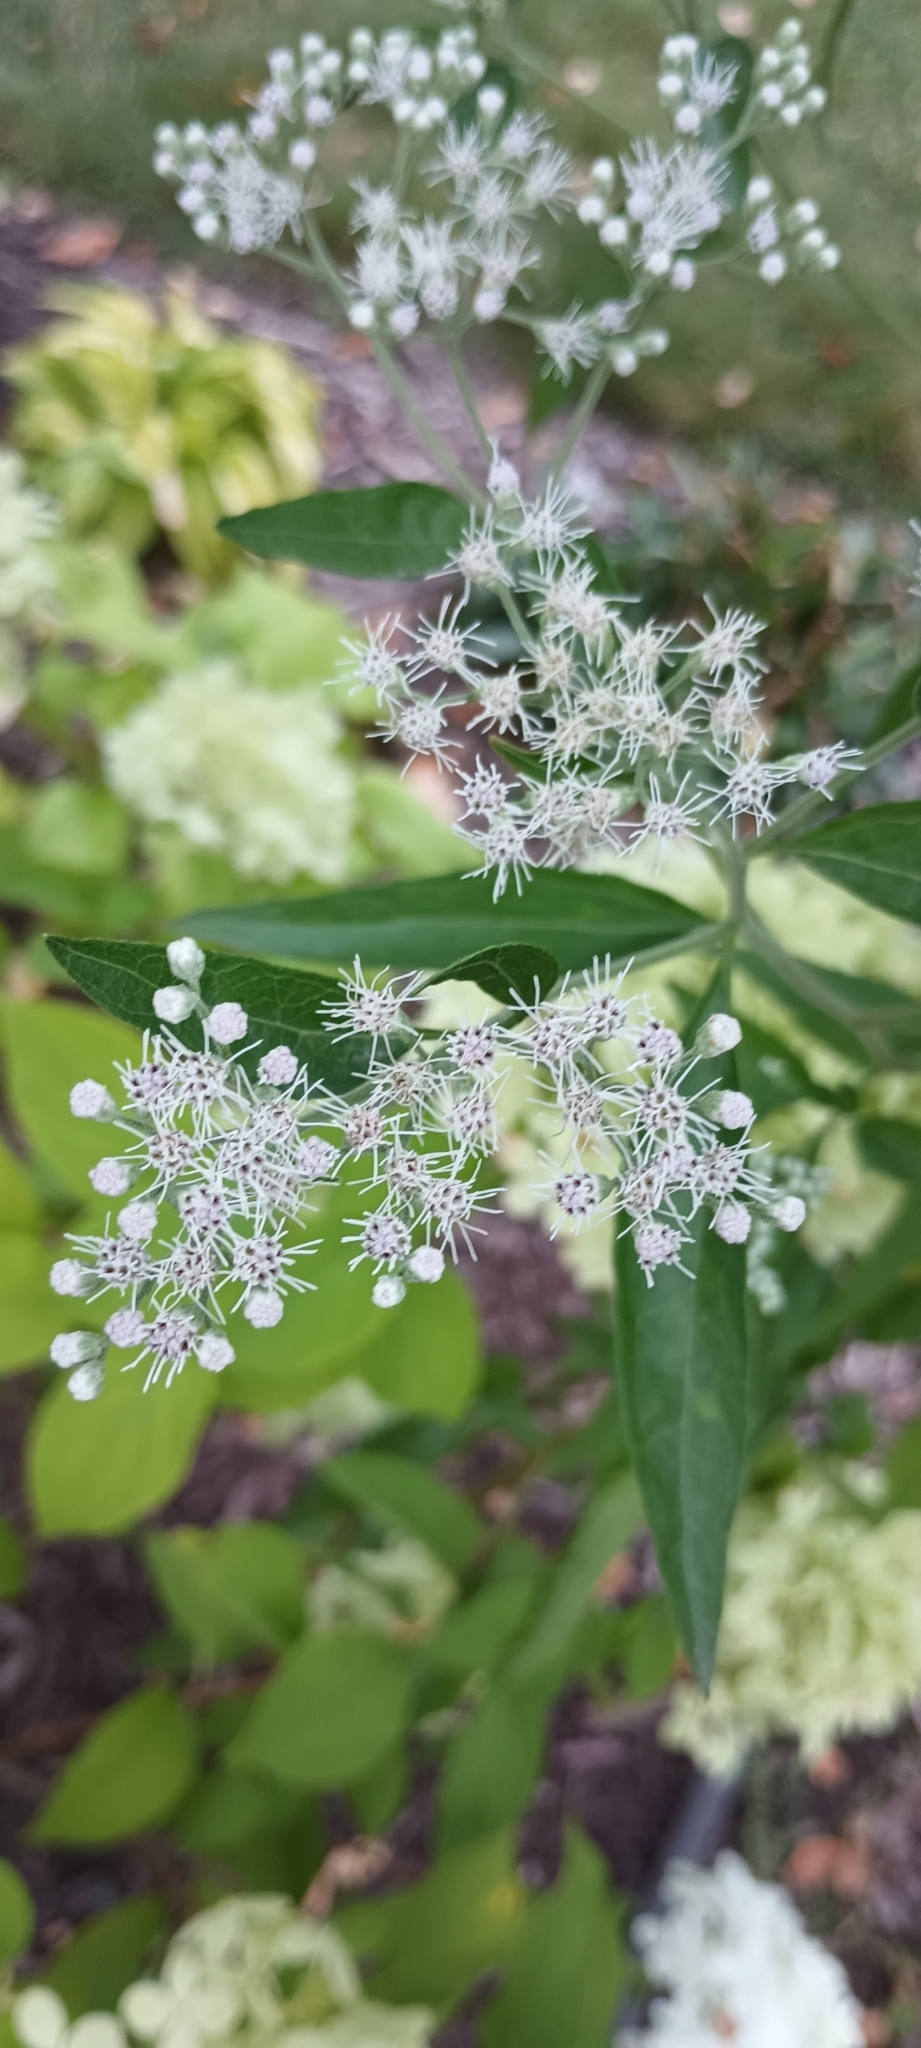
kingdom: Plantae
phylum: Tracheophyta
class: Magnoliopsida
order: Asterales
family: Asteraceae
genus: Eupatorium
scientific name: Eupatorium serotinum
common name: Late boneset
